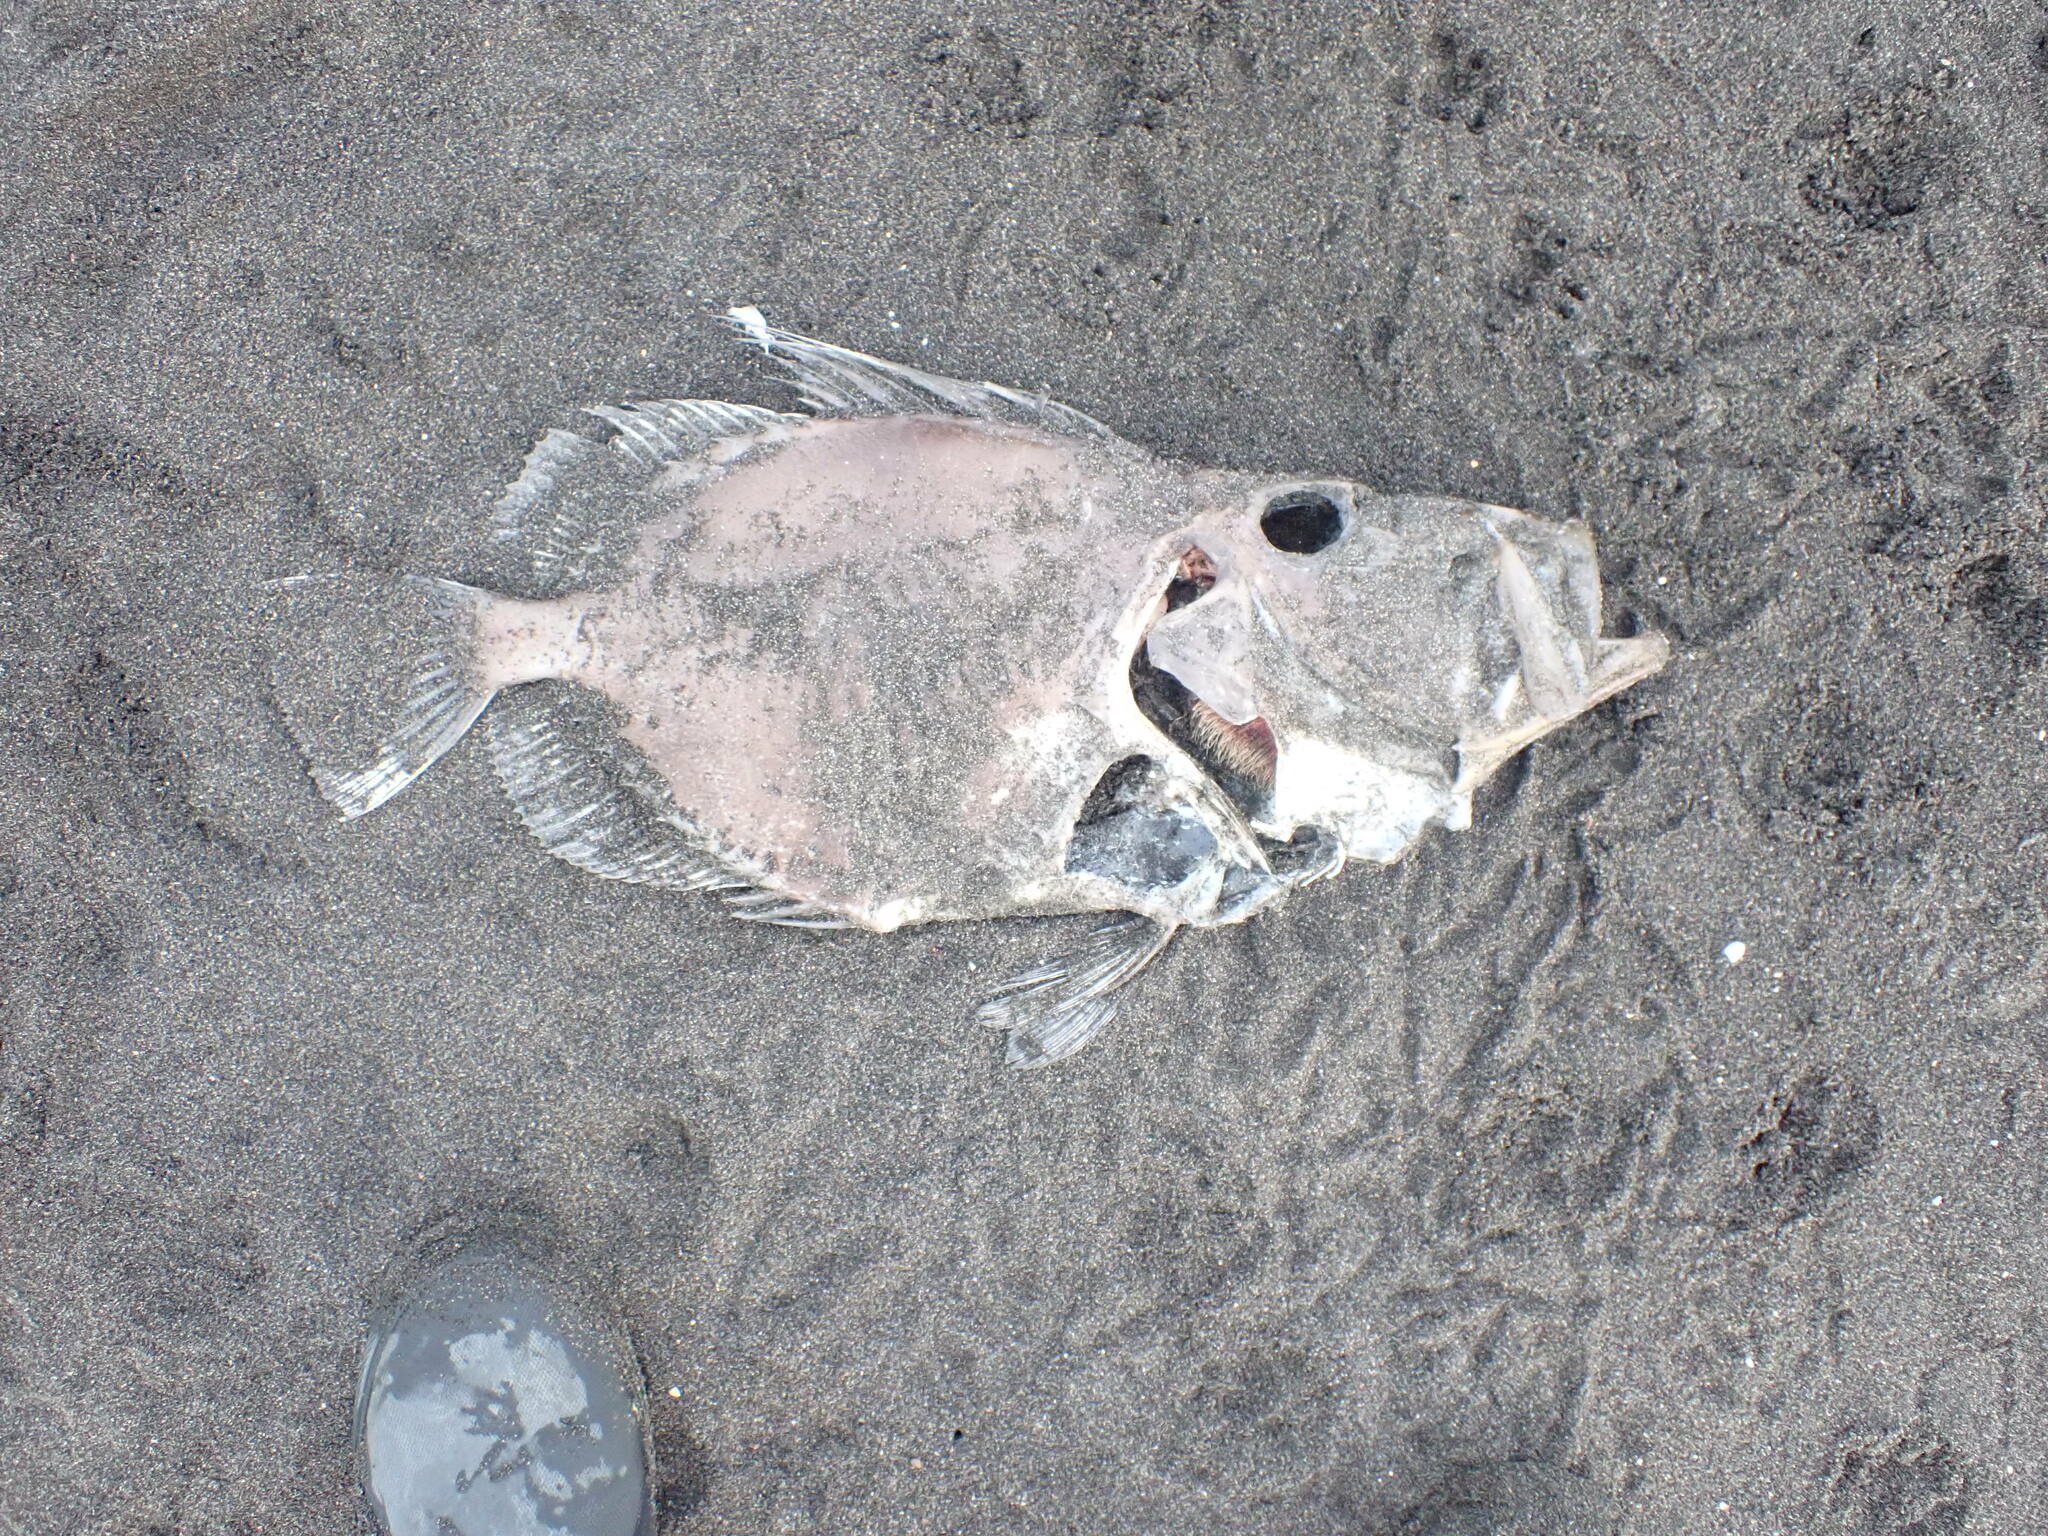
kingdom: Animalia
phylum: Chordata
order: Zeiformes
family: Zeidae
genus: Zeus
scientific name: Zeus faber
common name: John dory
